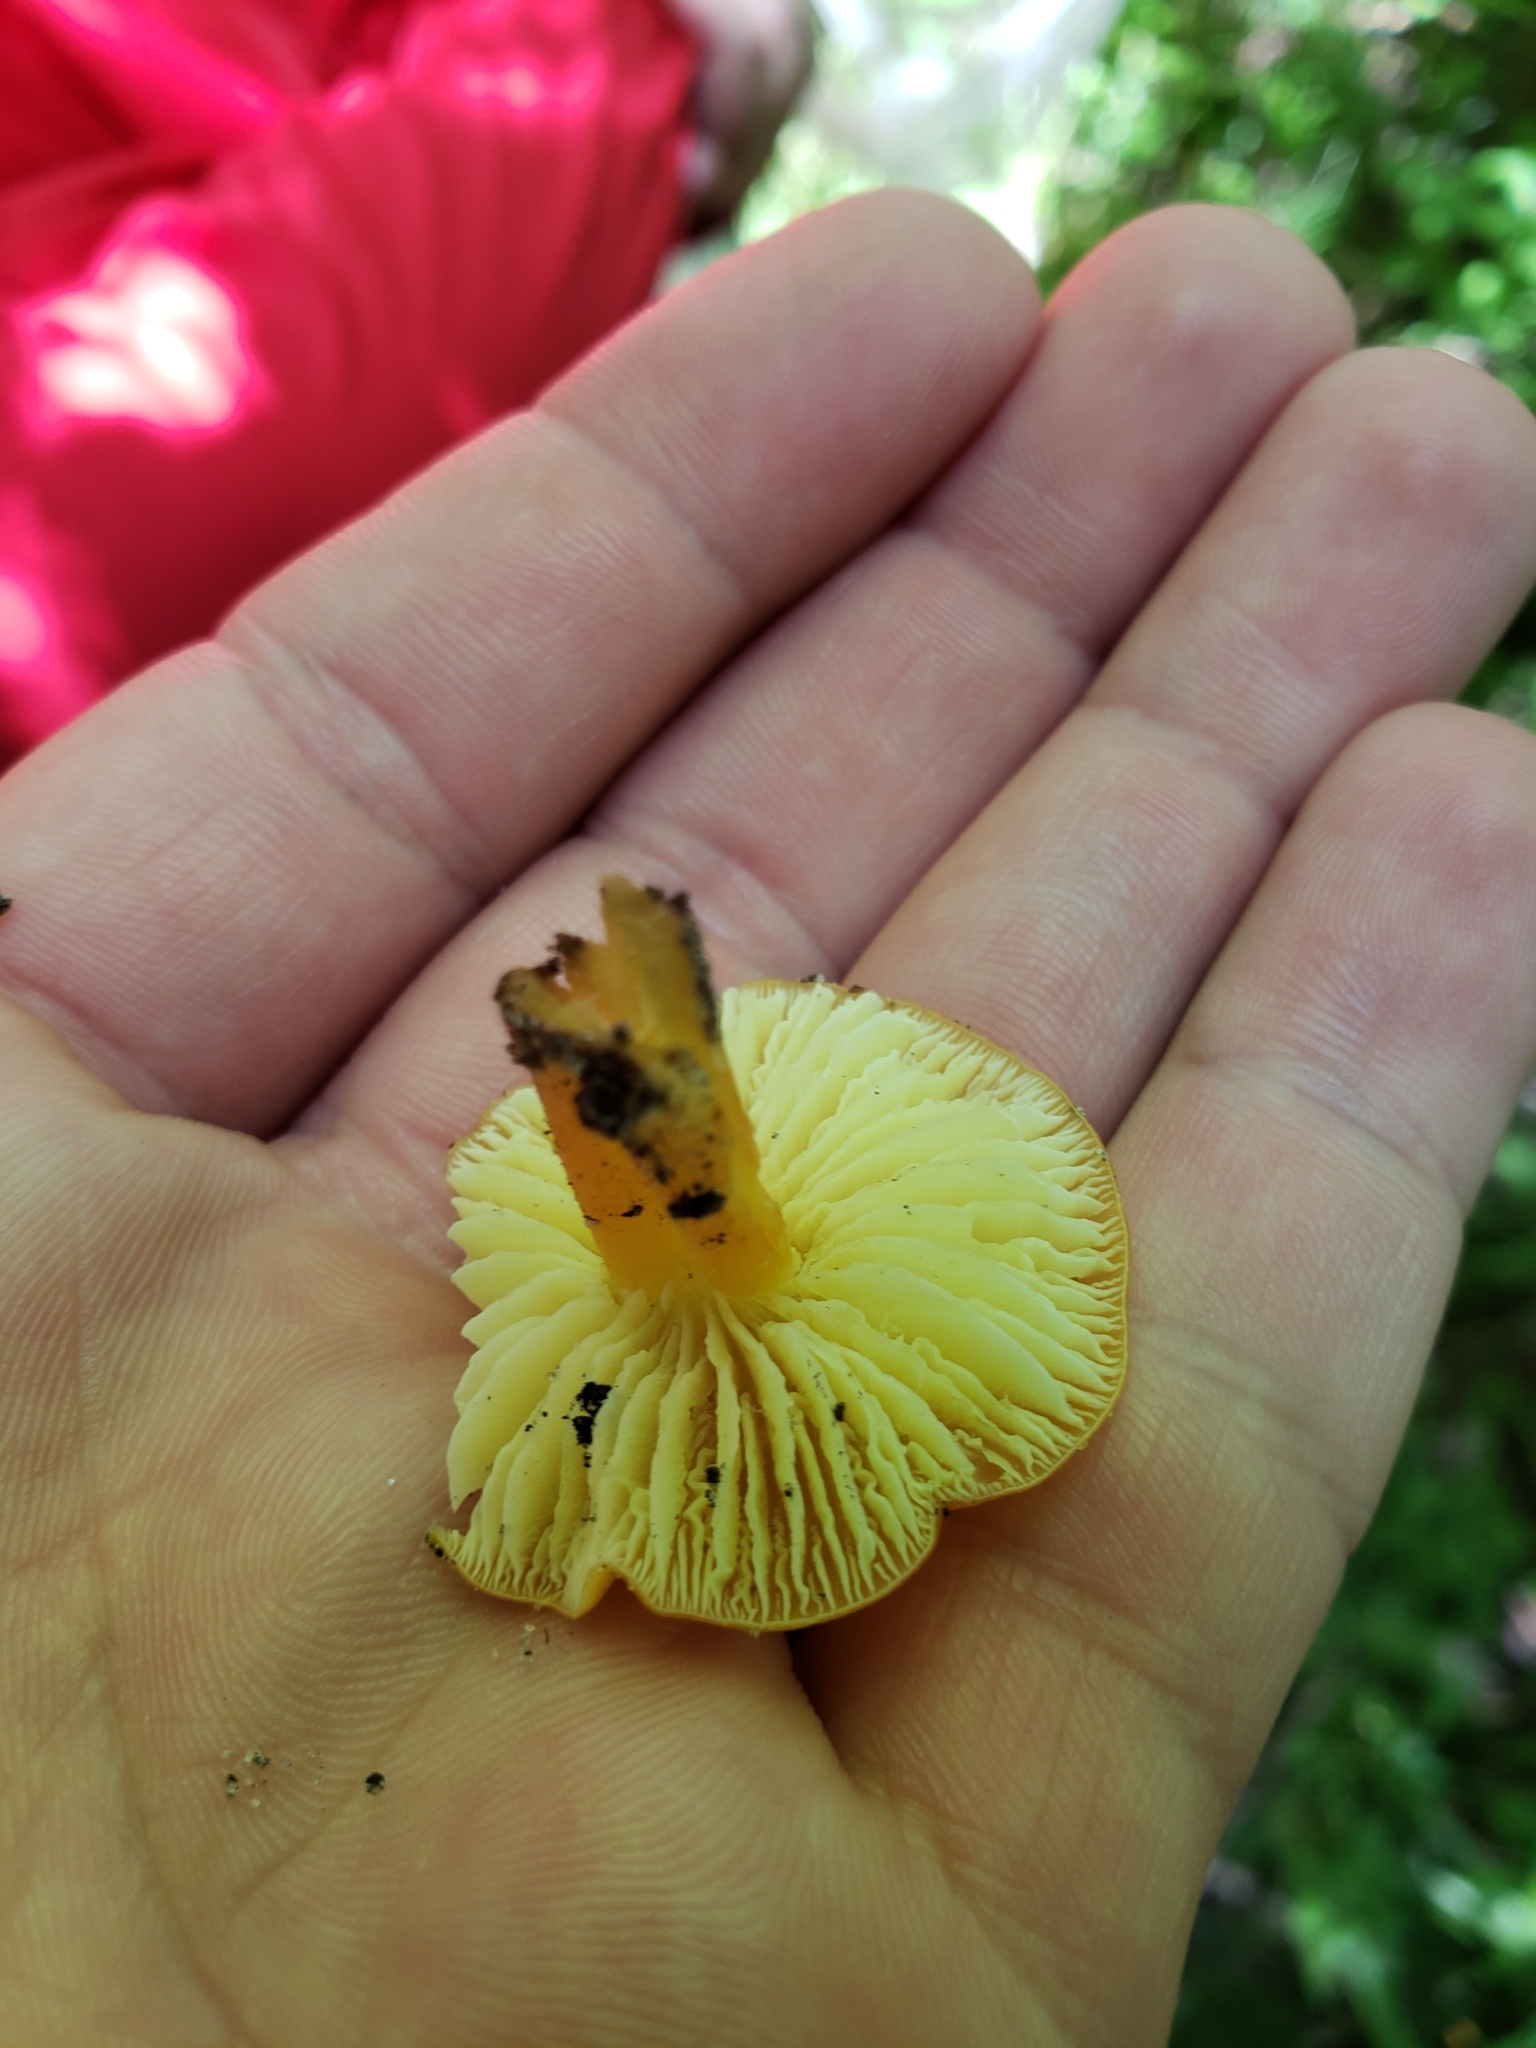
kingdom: Fungi
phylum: Basidiomycota
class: Agaricomycetes
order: Agaricales
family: Hygrophoraceae
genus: Hygrocybe
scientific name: Hygrocybe flavescens
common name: Golden waxy cap
